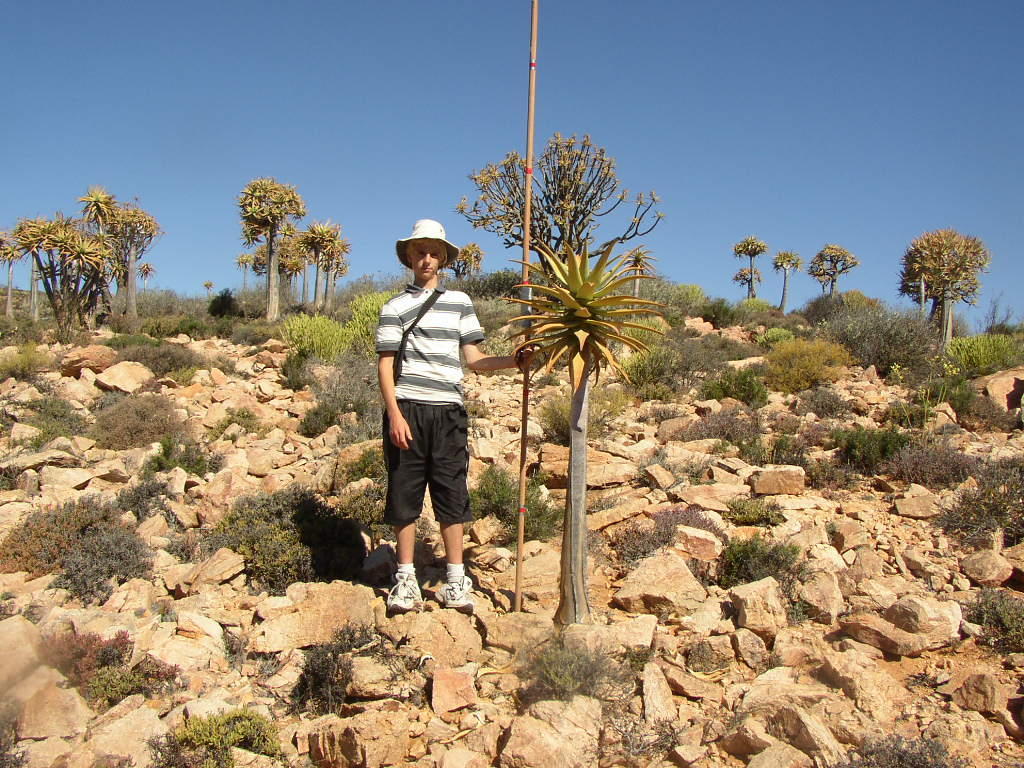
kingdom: Plantae
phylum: Tracheophyta
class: Liliopsida
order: Asparagales
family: Asphodelaceae
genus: Aloidendron
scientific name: Aloidendron dichotomum
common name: Quiver tree
